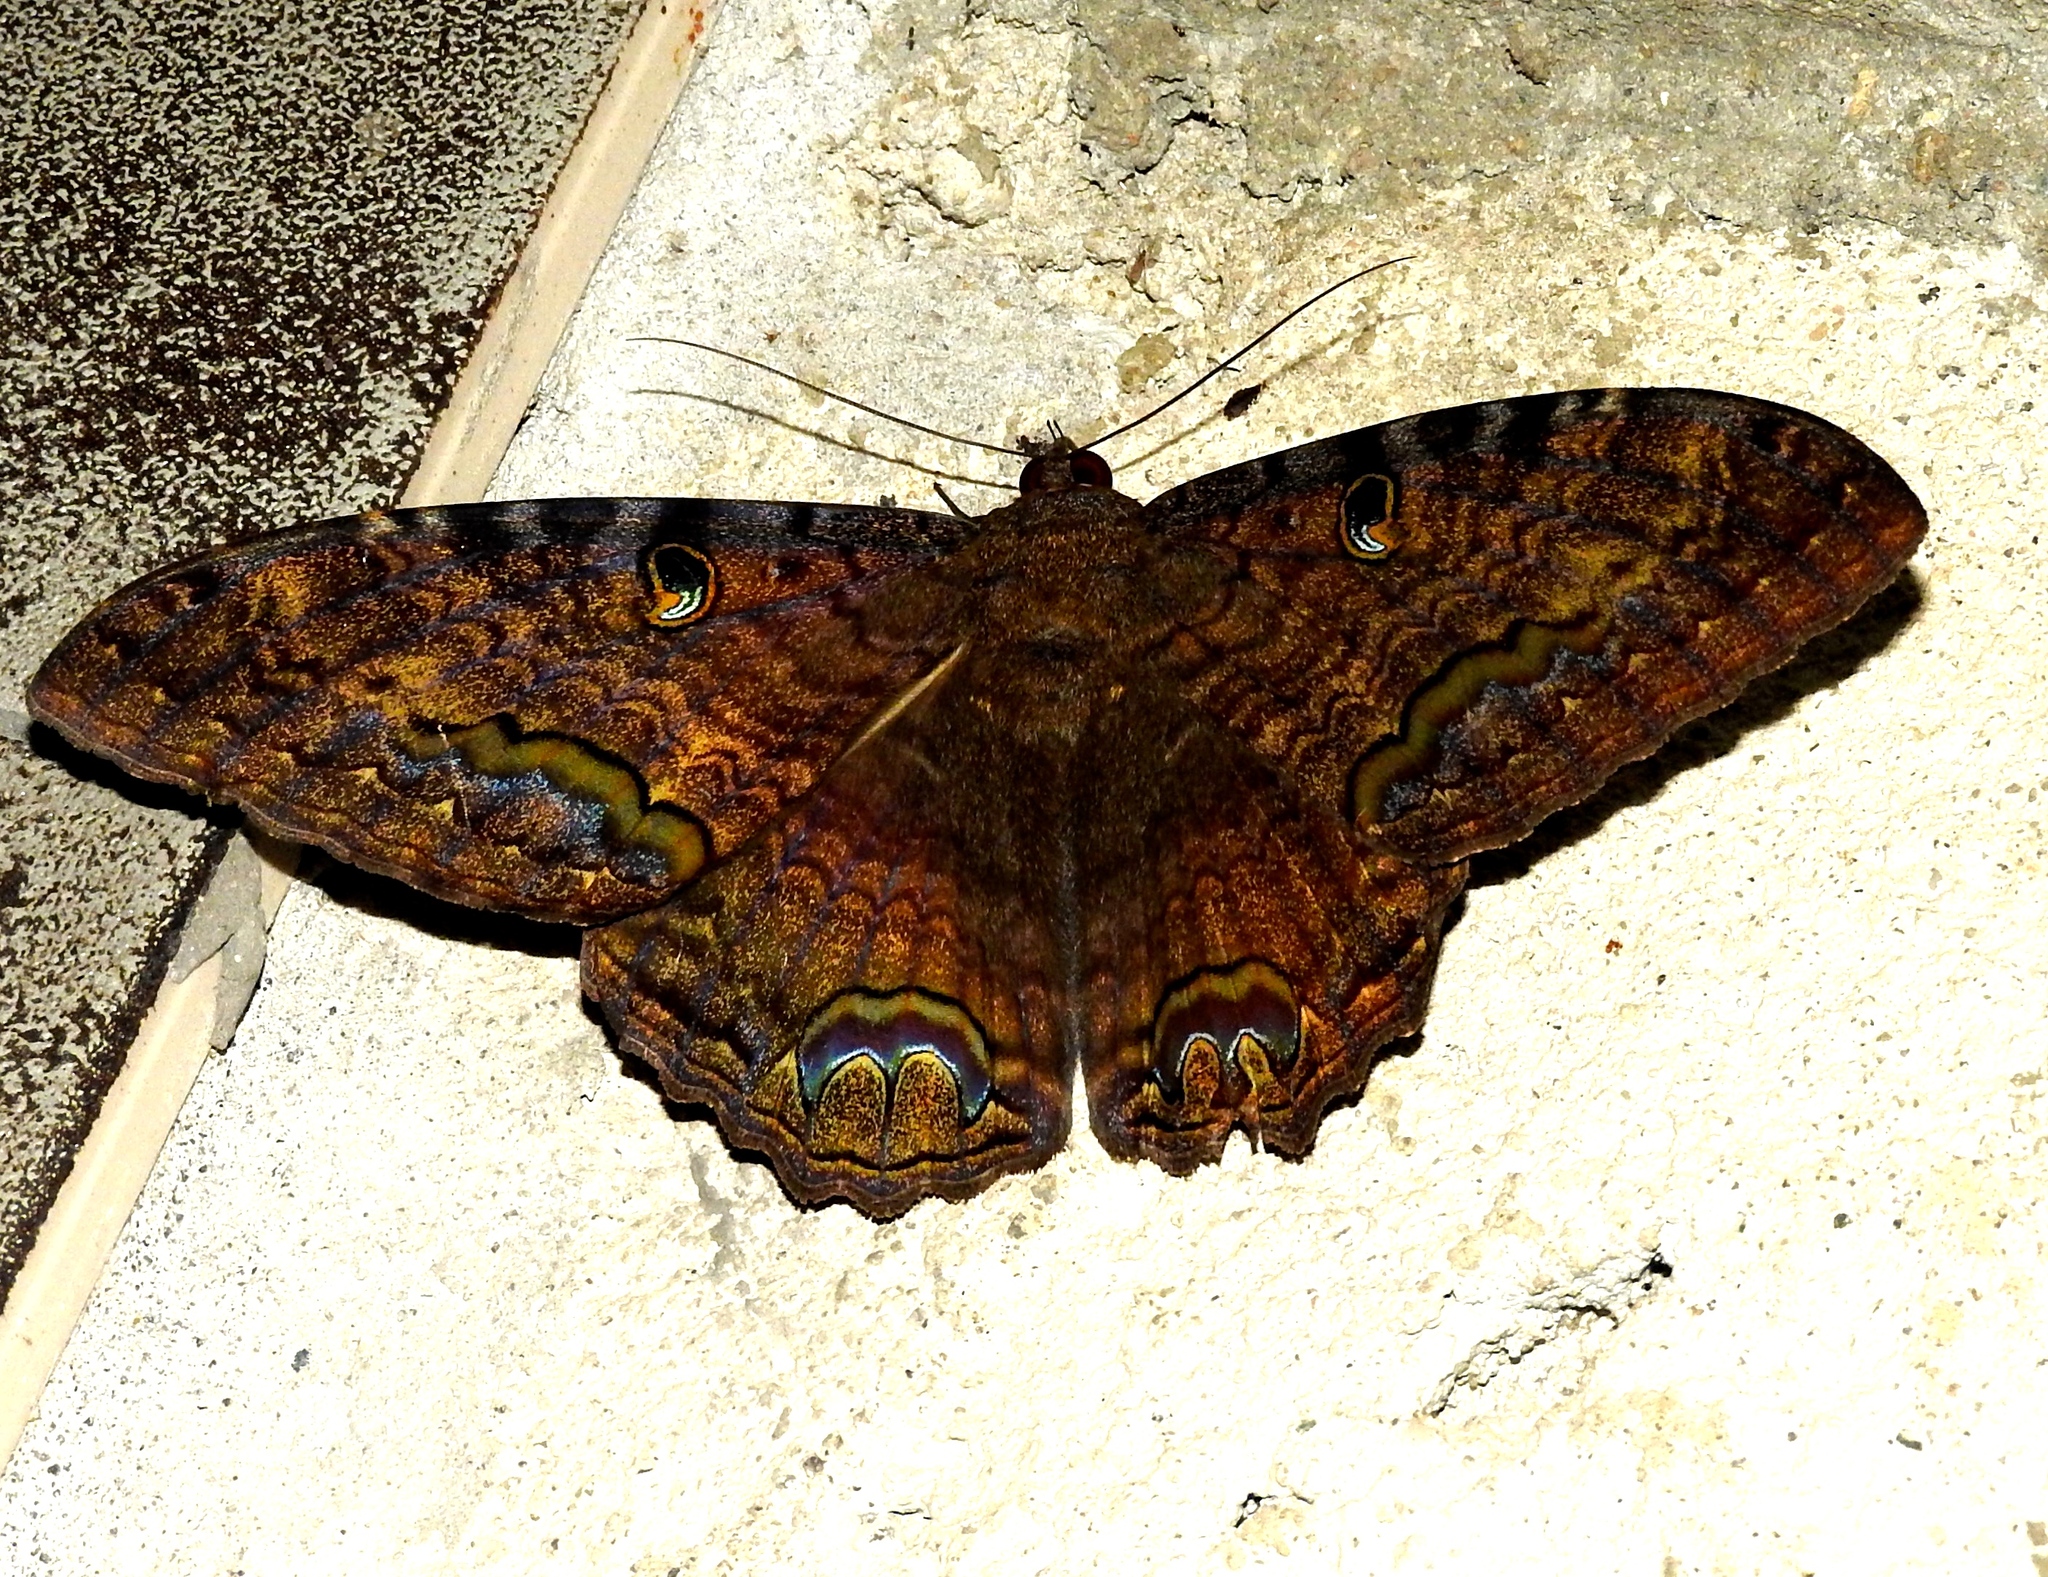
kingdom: Animalia
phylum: Arthropoda
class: Insecta
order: Lepidoptera
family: Erebidae
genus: Ascalapha
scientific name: Ascalapha odorata
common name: Black witch
